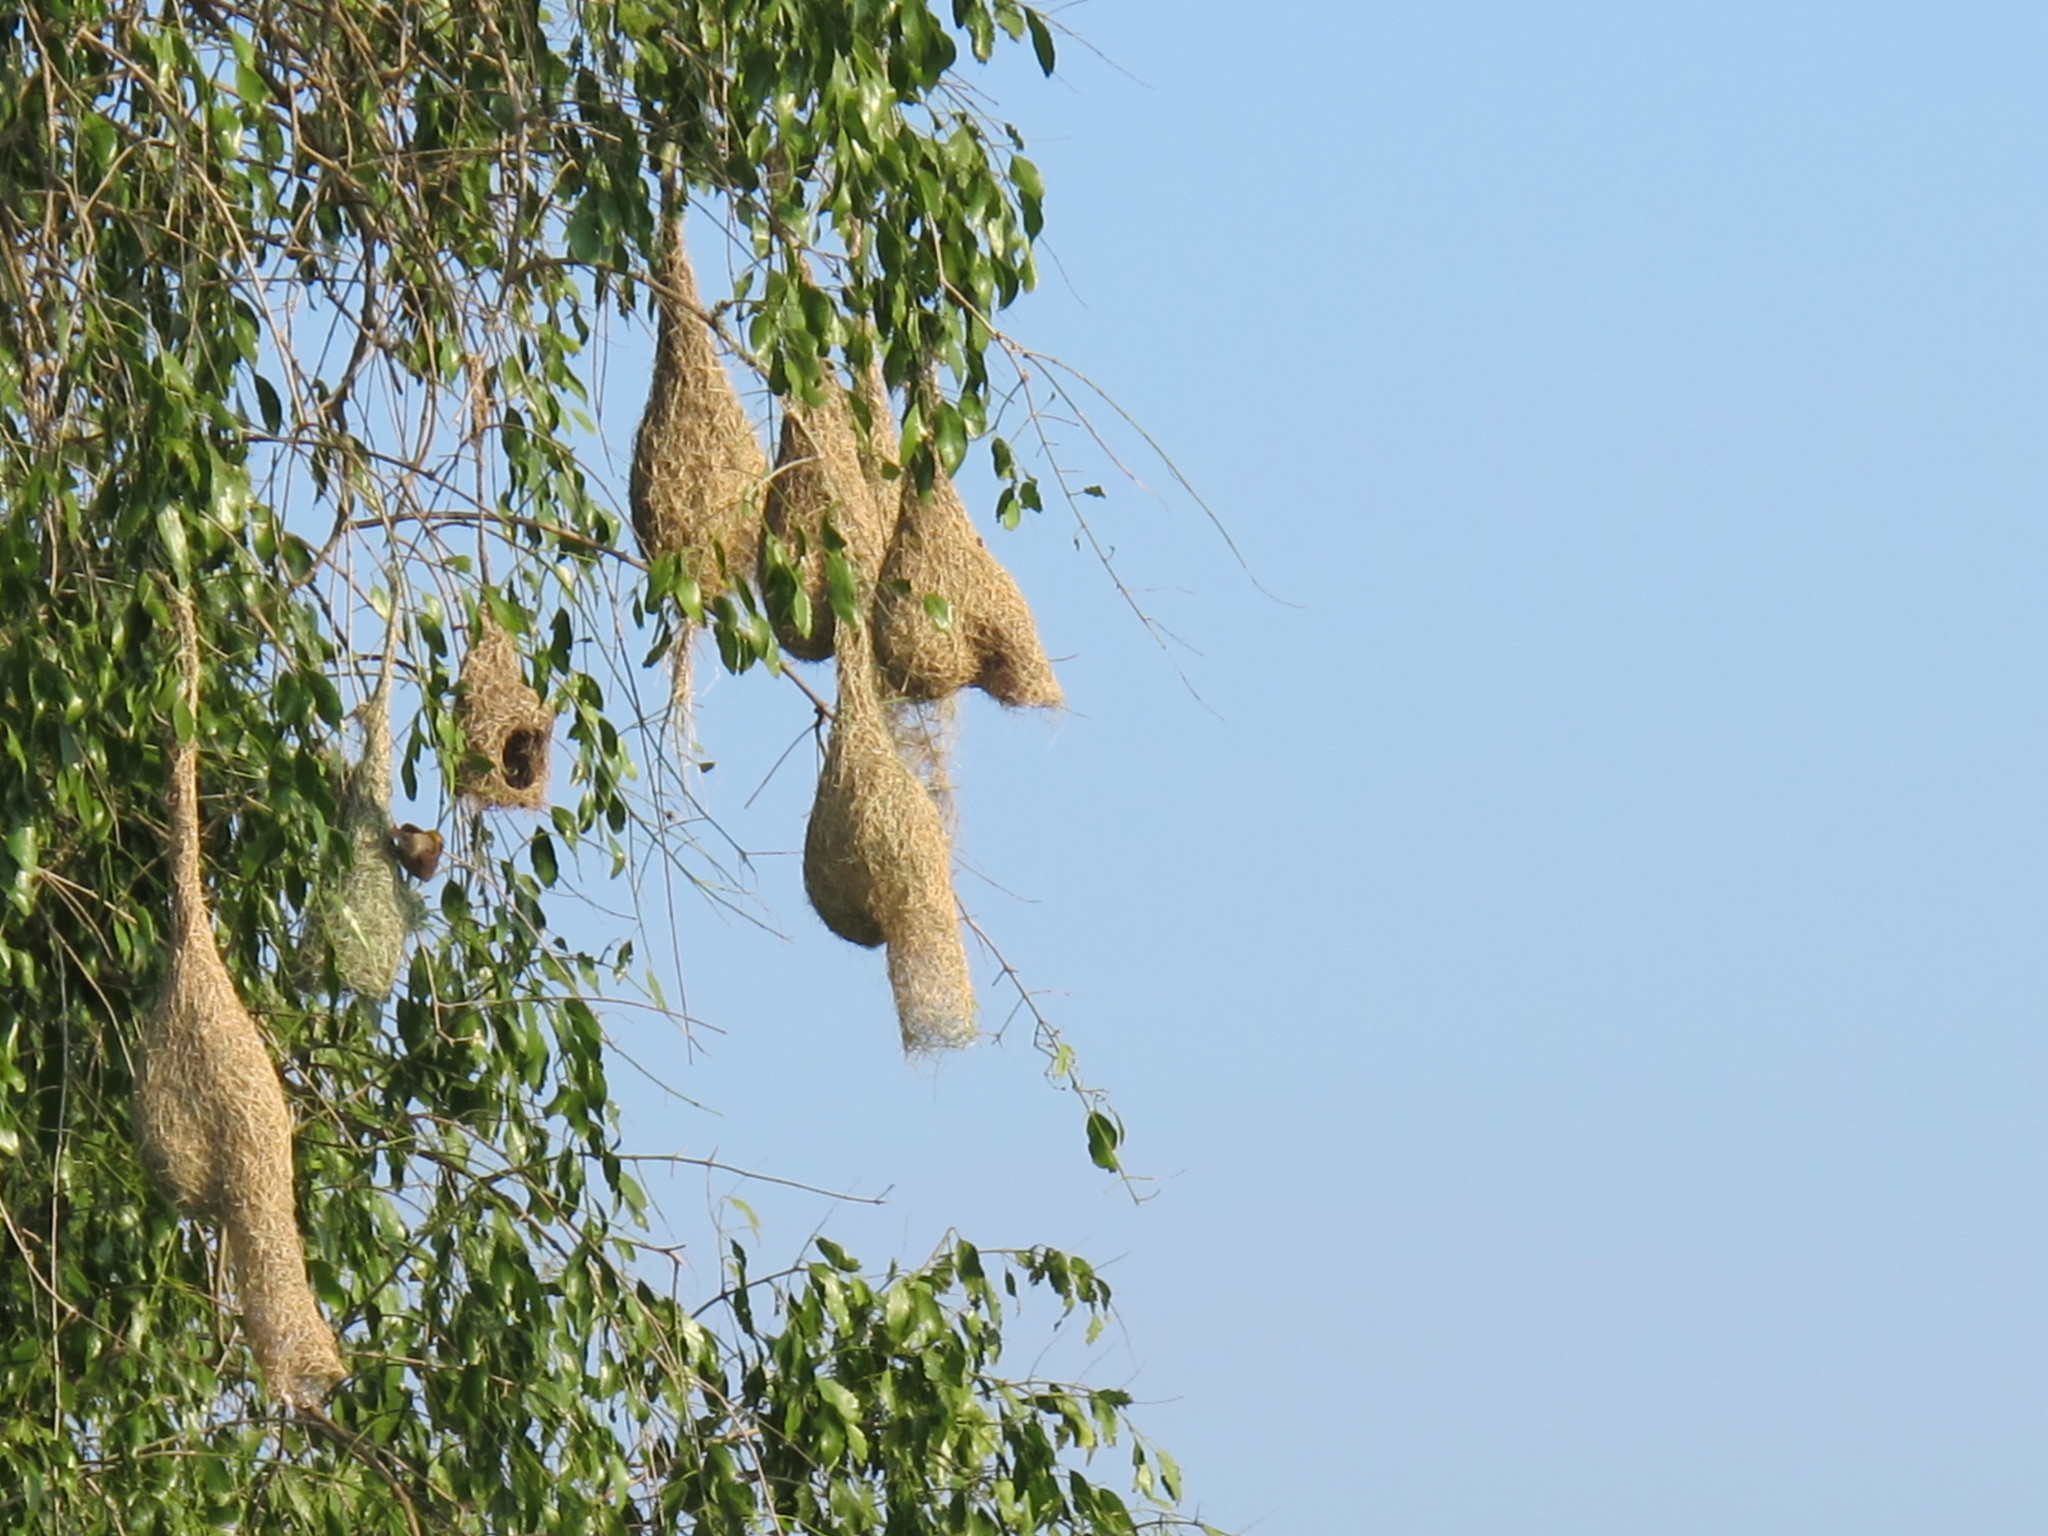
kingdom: Animalia
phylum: Chordata
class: Aves
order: Passeriformes
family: Ploceidae
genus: Ploceus
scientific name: Ploceus philippinus
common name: Baya weaver
